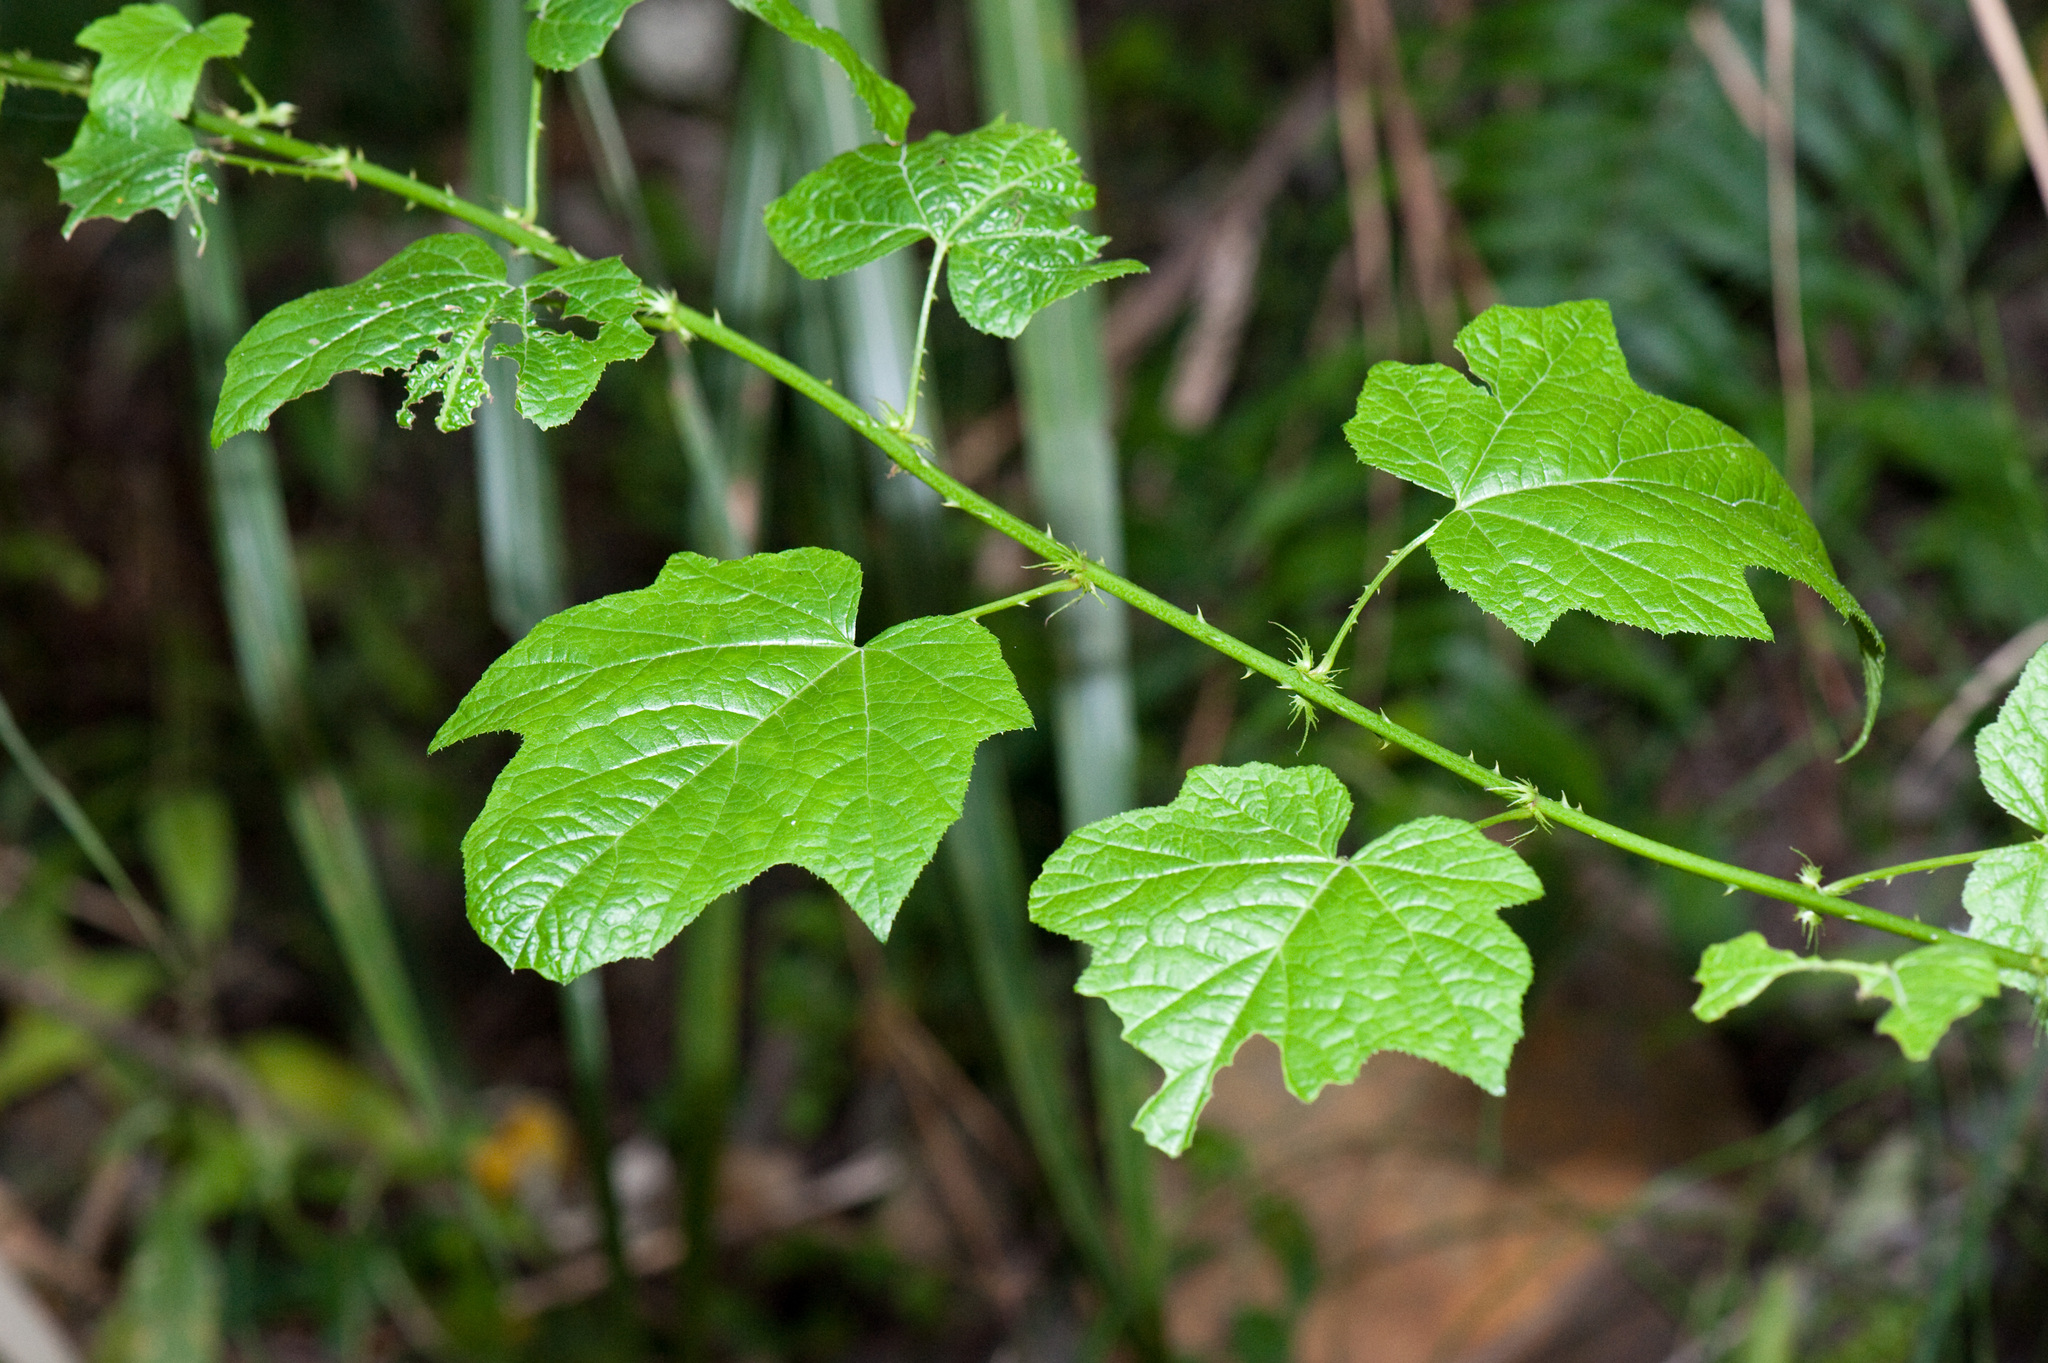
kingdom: Plantae
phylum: Tracheophyta
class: Magnoliopsida
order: Rosales
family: Rosaceae
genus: Rubus
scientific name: Rubus lambertianus
